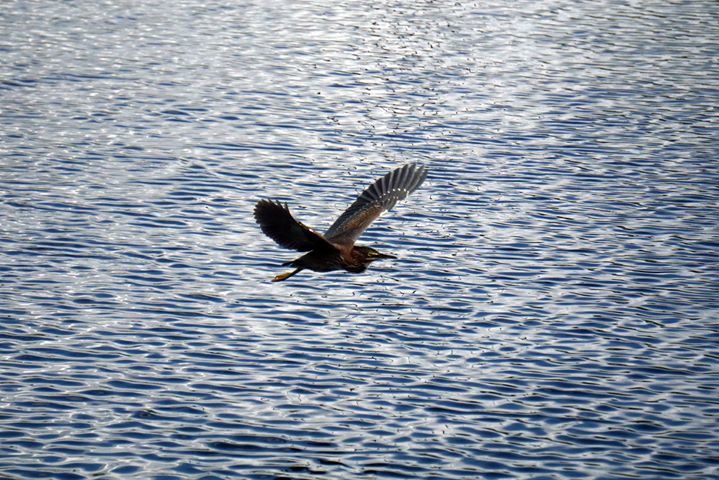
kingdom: Animalia
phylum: Chordata
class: Aves
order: Pelecaniformes
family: Ardeidae
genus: Butorides
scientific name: Butorides virescens
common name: Green heron
